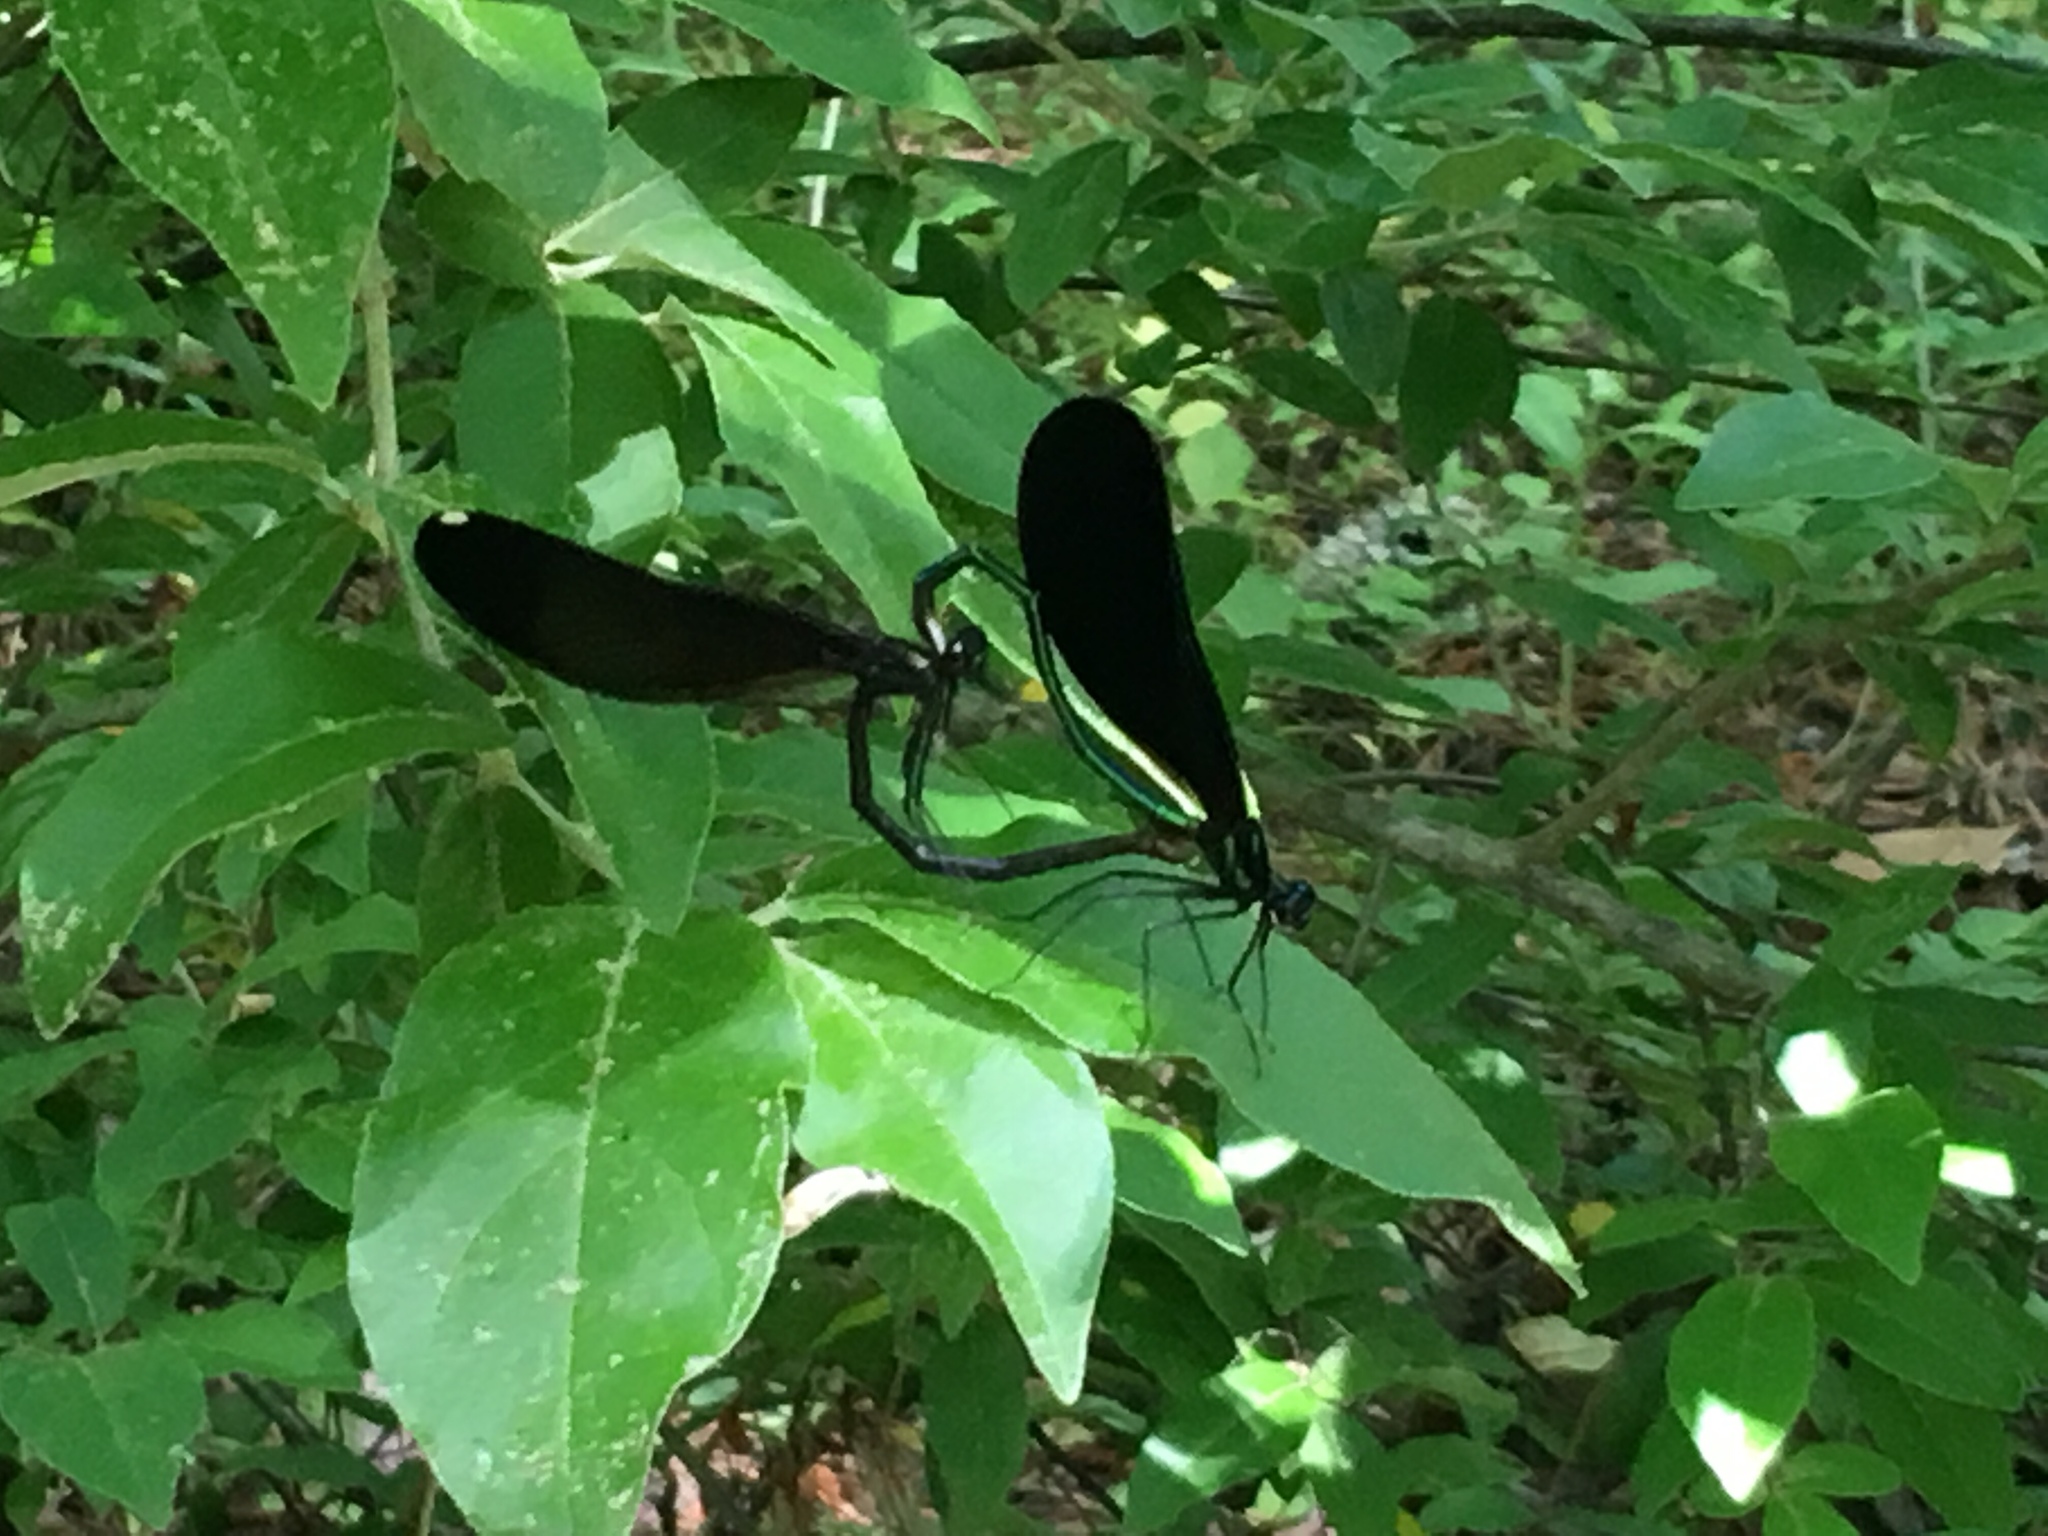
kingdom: Animalia
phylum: Arthropoda
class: Insecta
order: Odonata
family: Calopterygidae
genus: Calopteryx
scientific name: Calopteryx maculata
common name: Ebony jewelwing
